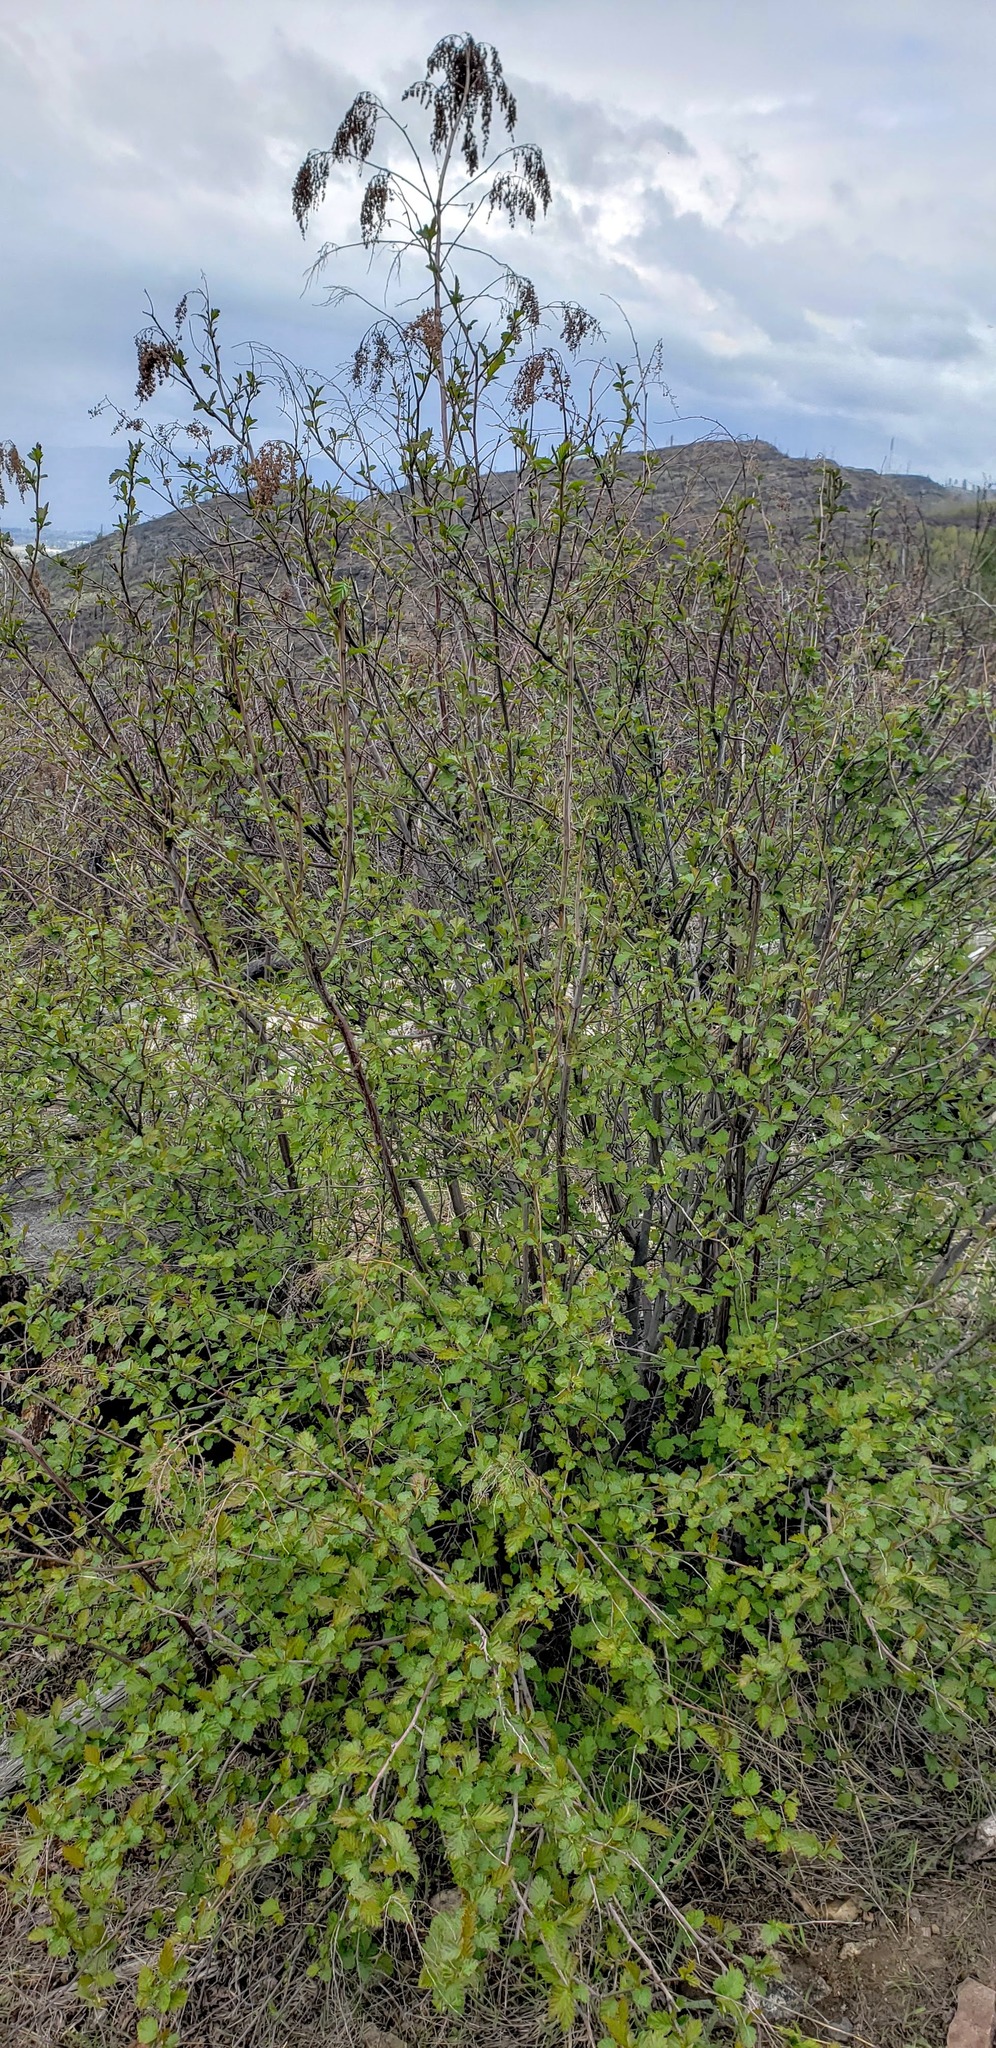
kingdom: Plantae
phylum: Tracheophyta
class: Magnoliopsida
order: Rosales
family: Rosaceae
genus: Holodiscus
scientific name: Holodiscus discolor
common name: Oceanspray
